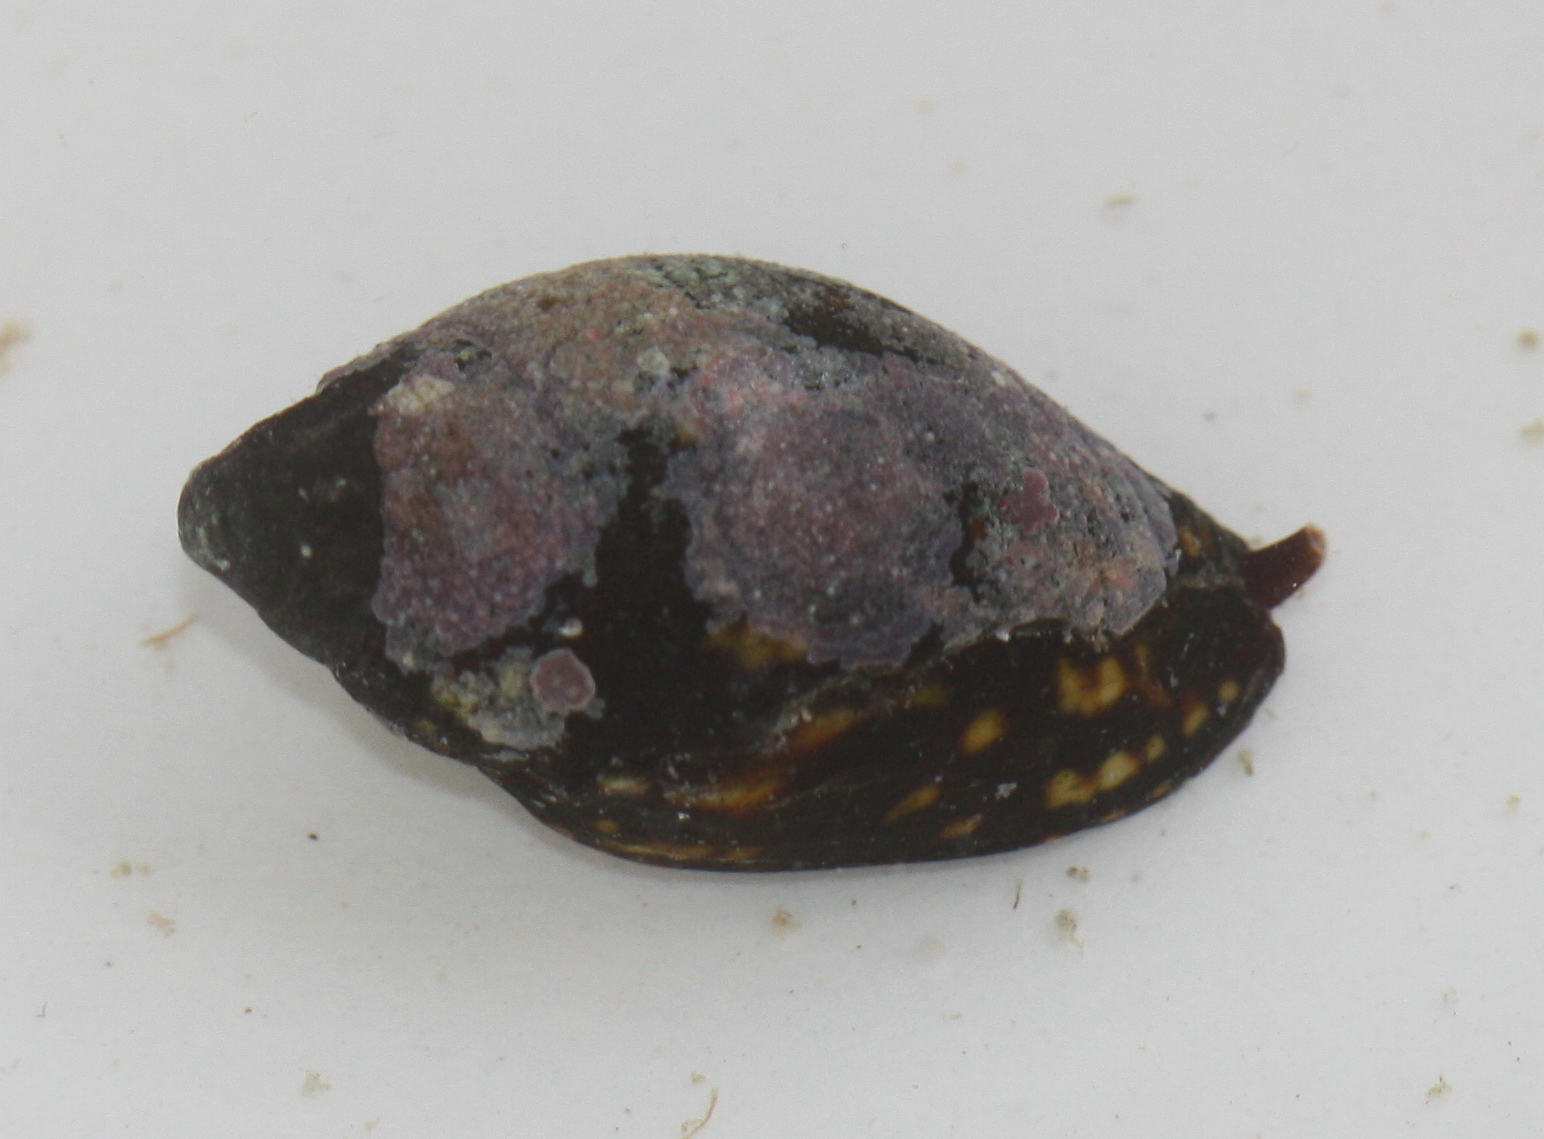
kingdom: Animalia
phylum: Mollusca
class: Gastropoda
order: Neogastropoda
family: Mitridae
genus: Strigatella
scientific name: Strigatella litterata
